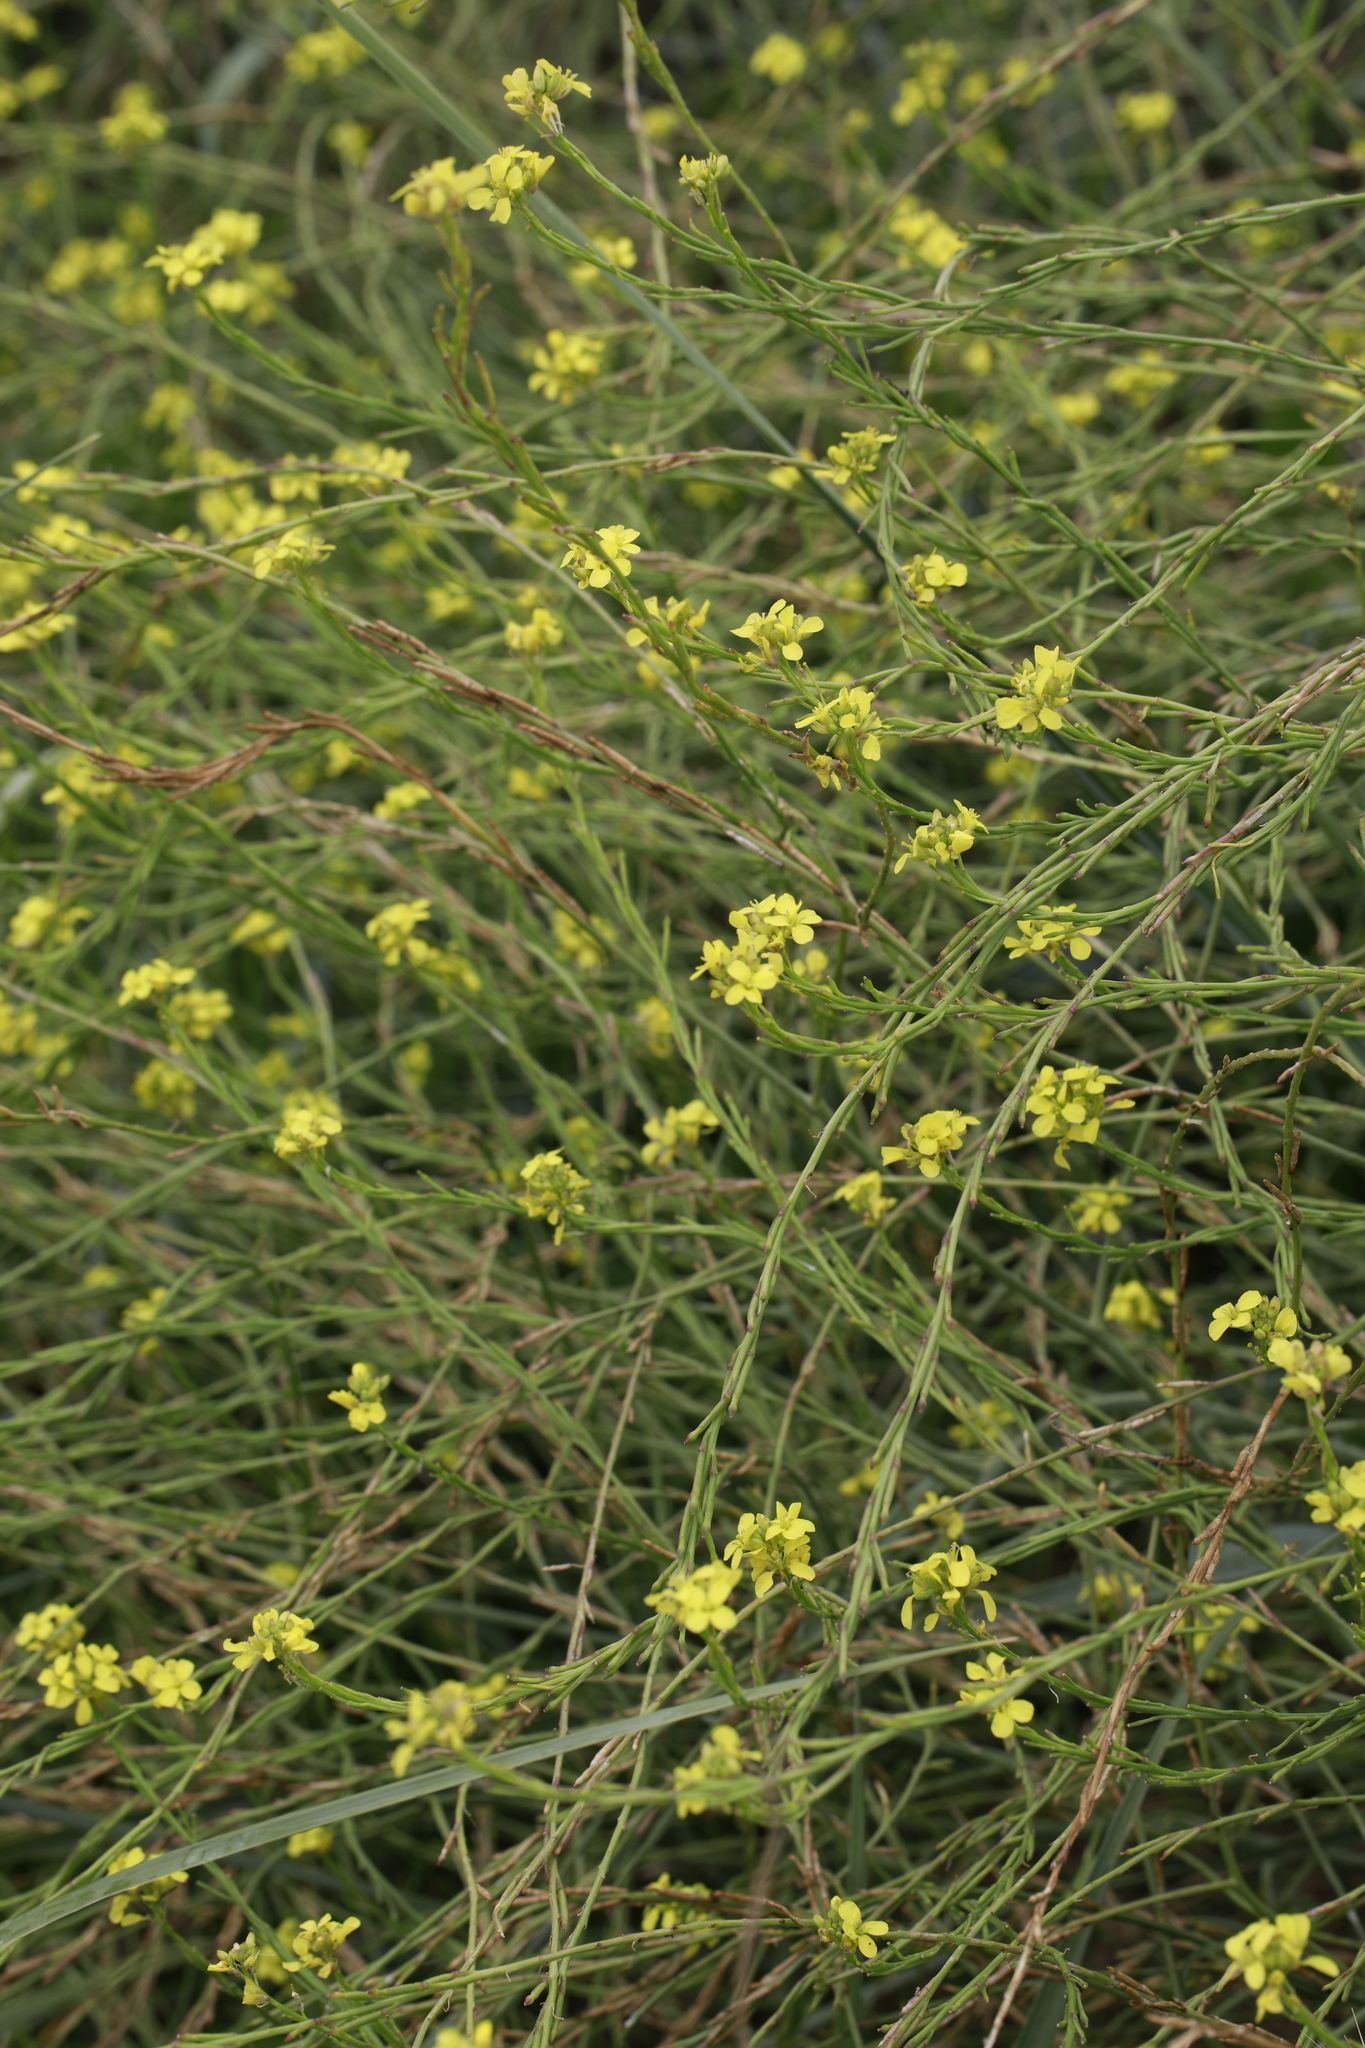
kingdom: Plantae
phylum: Tracheophyta
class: Magnoliopsida
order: Brassicales
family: Brassicaceae
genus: Hirschfeldia
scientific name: Hirschfeldia incana
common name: Hoary mustard
